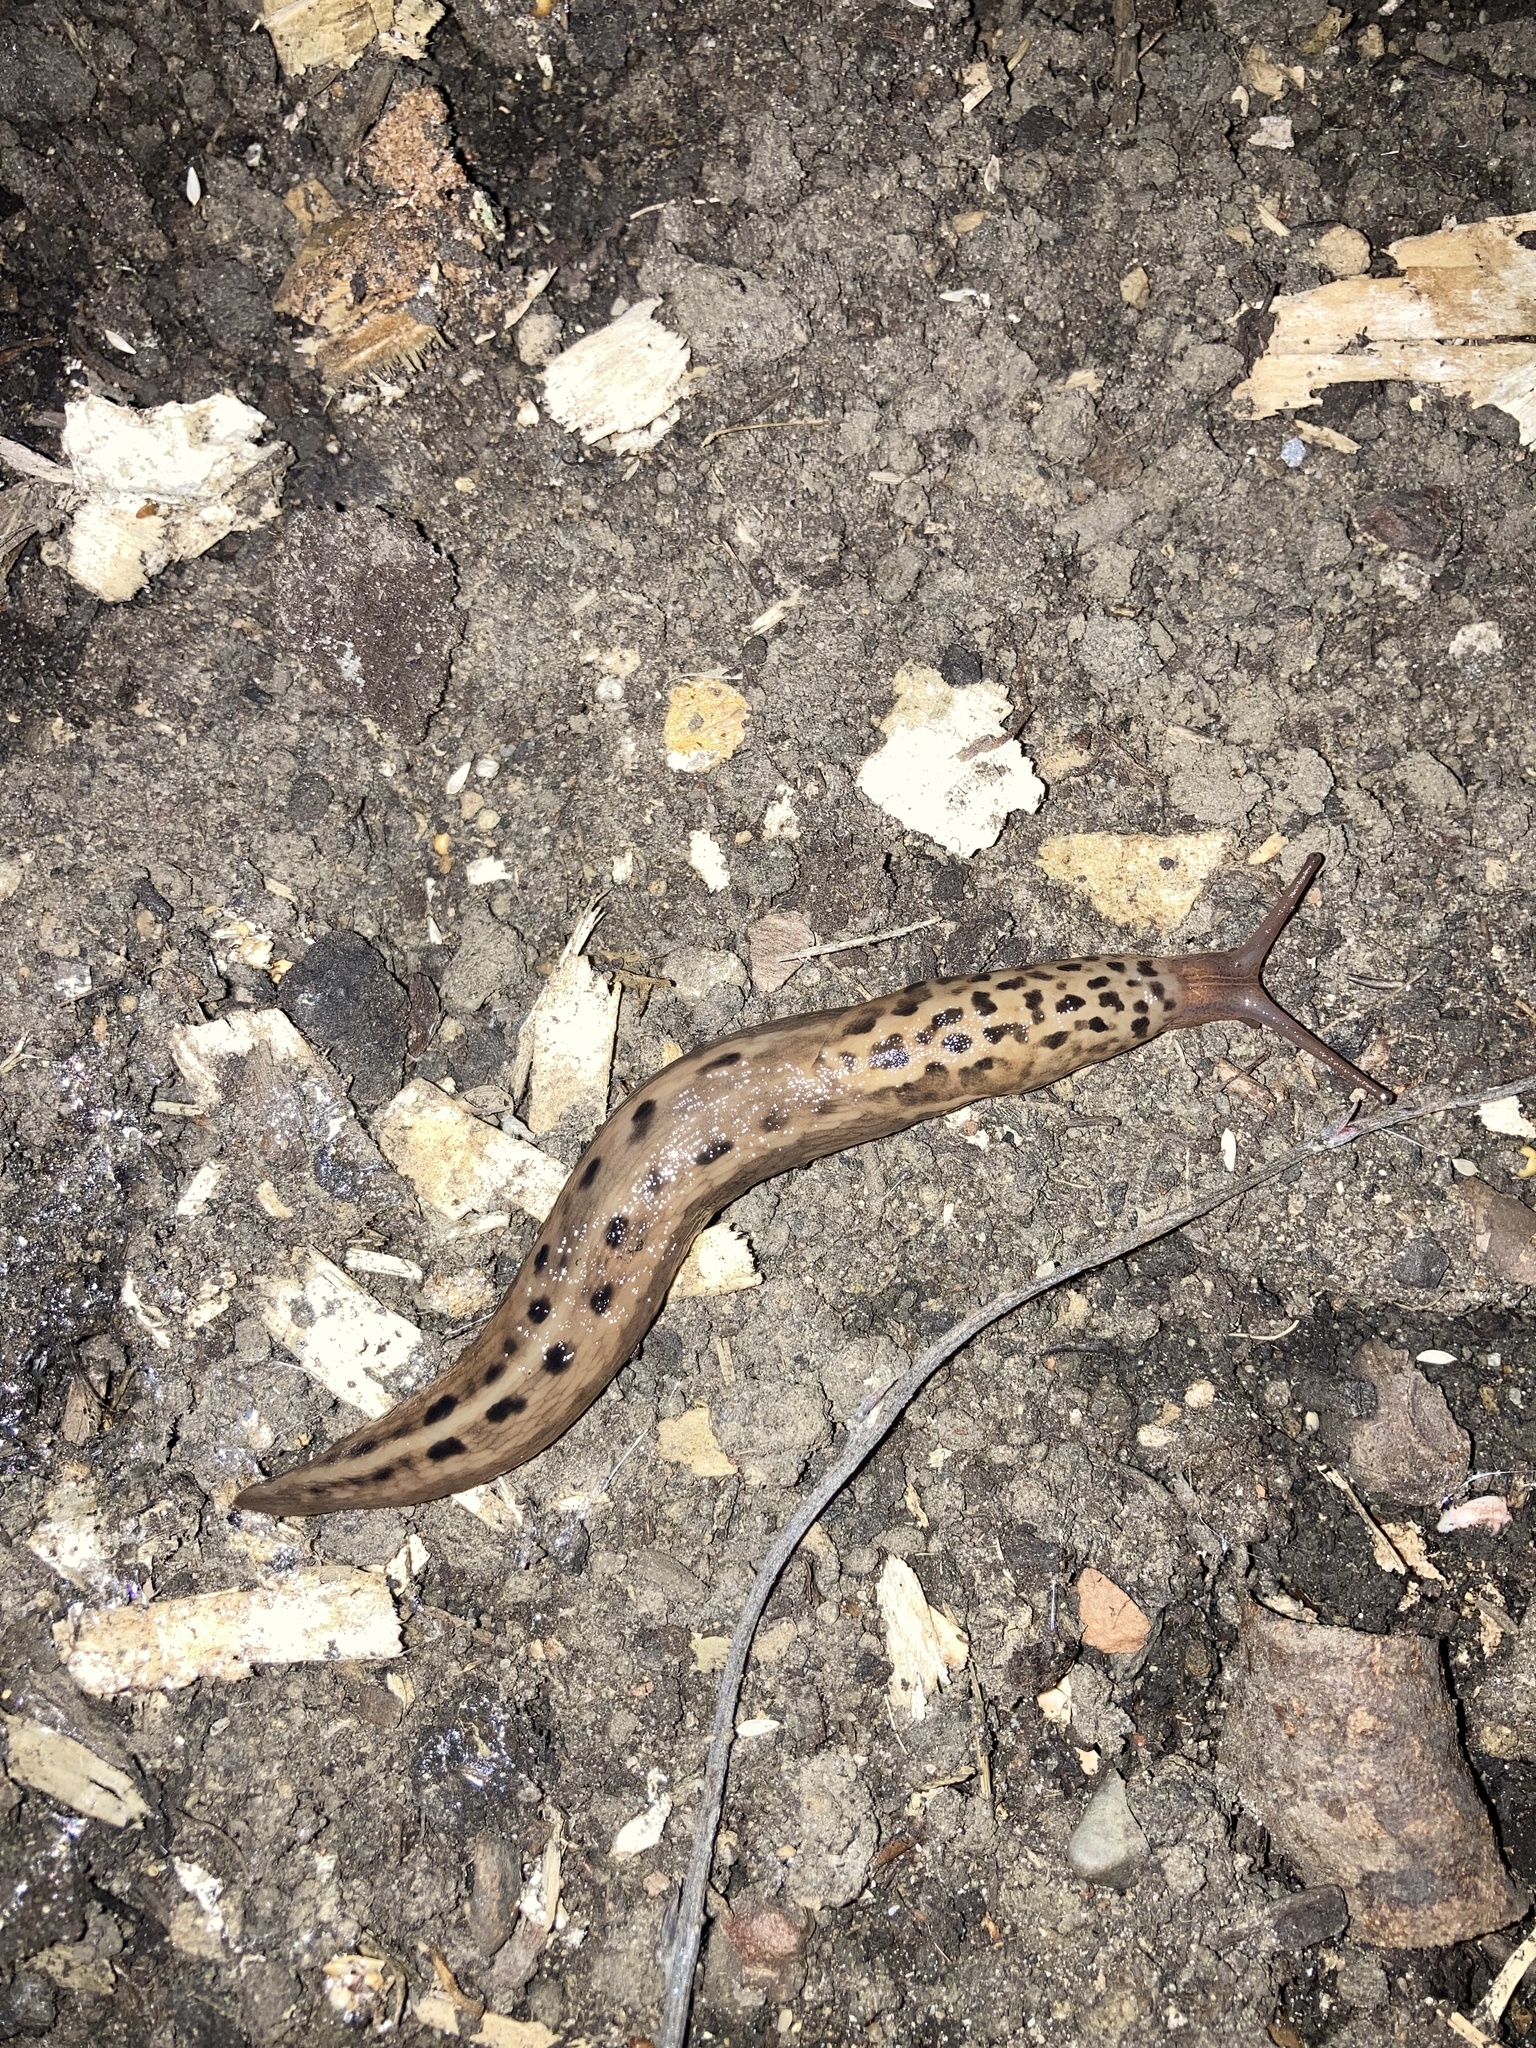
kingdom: Animalia
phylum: Mollusca
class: Gastropoda
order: Stylommatophora
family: Limacidae
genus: Limax
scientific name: Limax maximus
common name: Great grey slug
